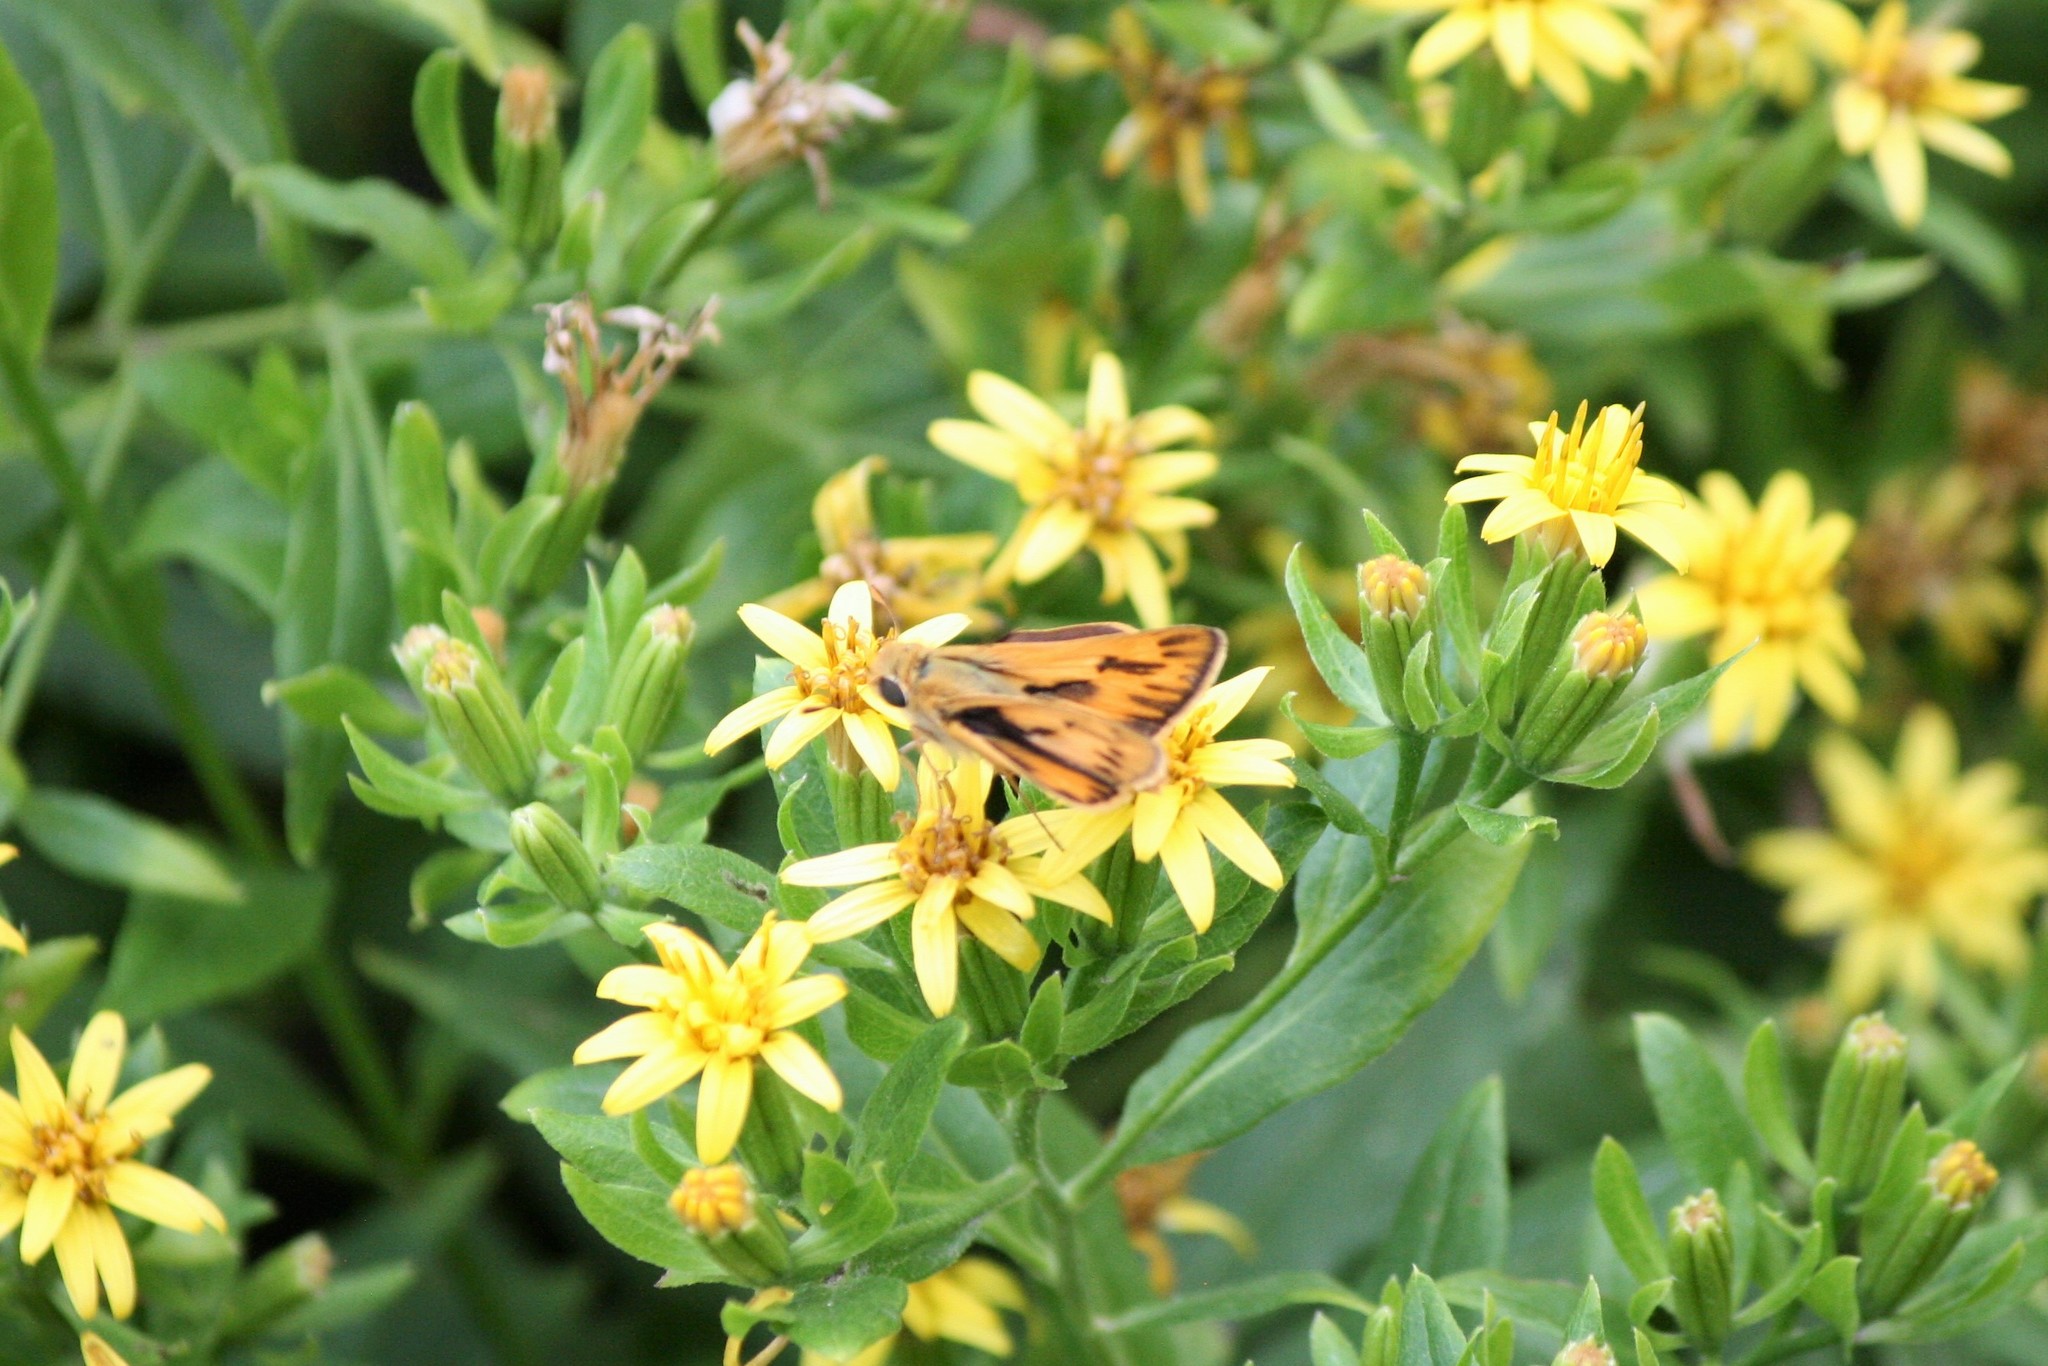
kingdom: Animalia
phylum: Arthropoda
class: Insecta
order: Lepidoptera
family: Hesperiidae
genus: Hylephila
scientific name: Hylephila phyleus
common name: Fiery skipper
